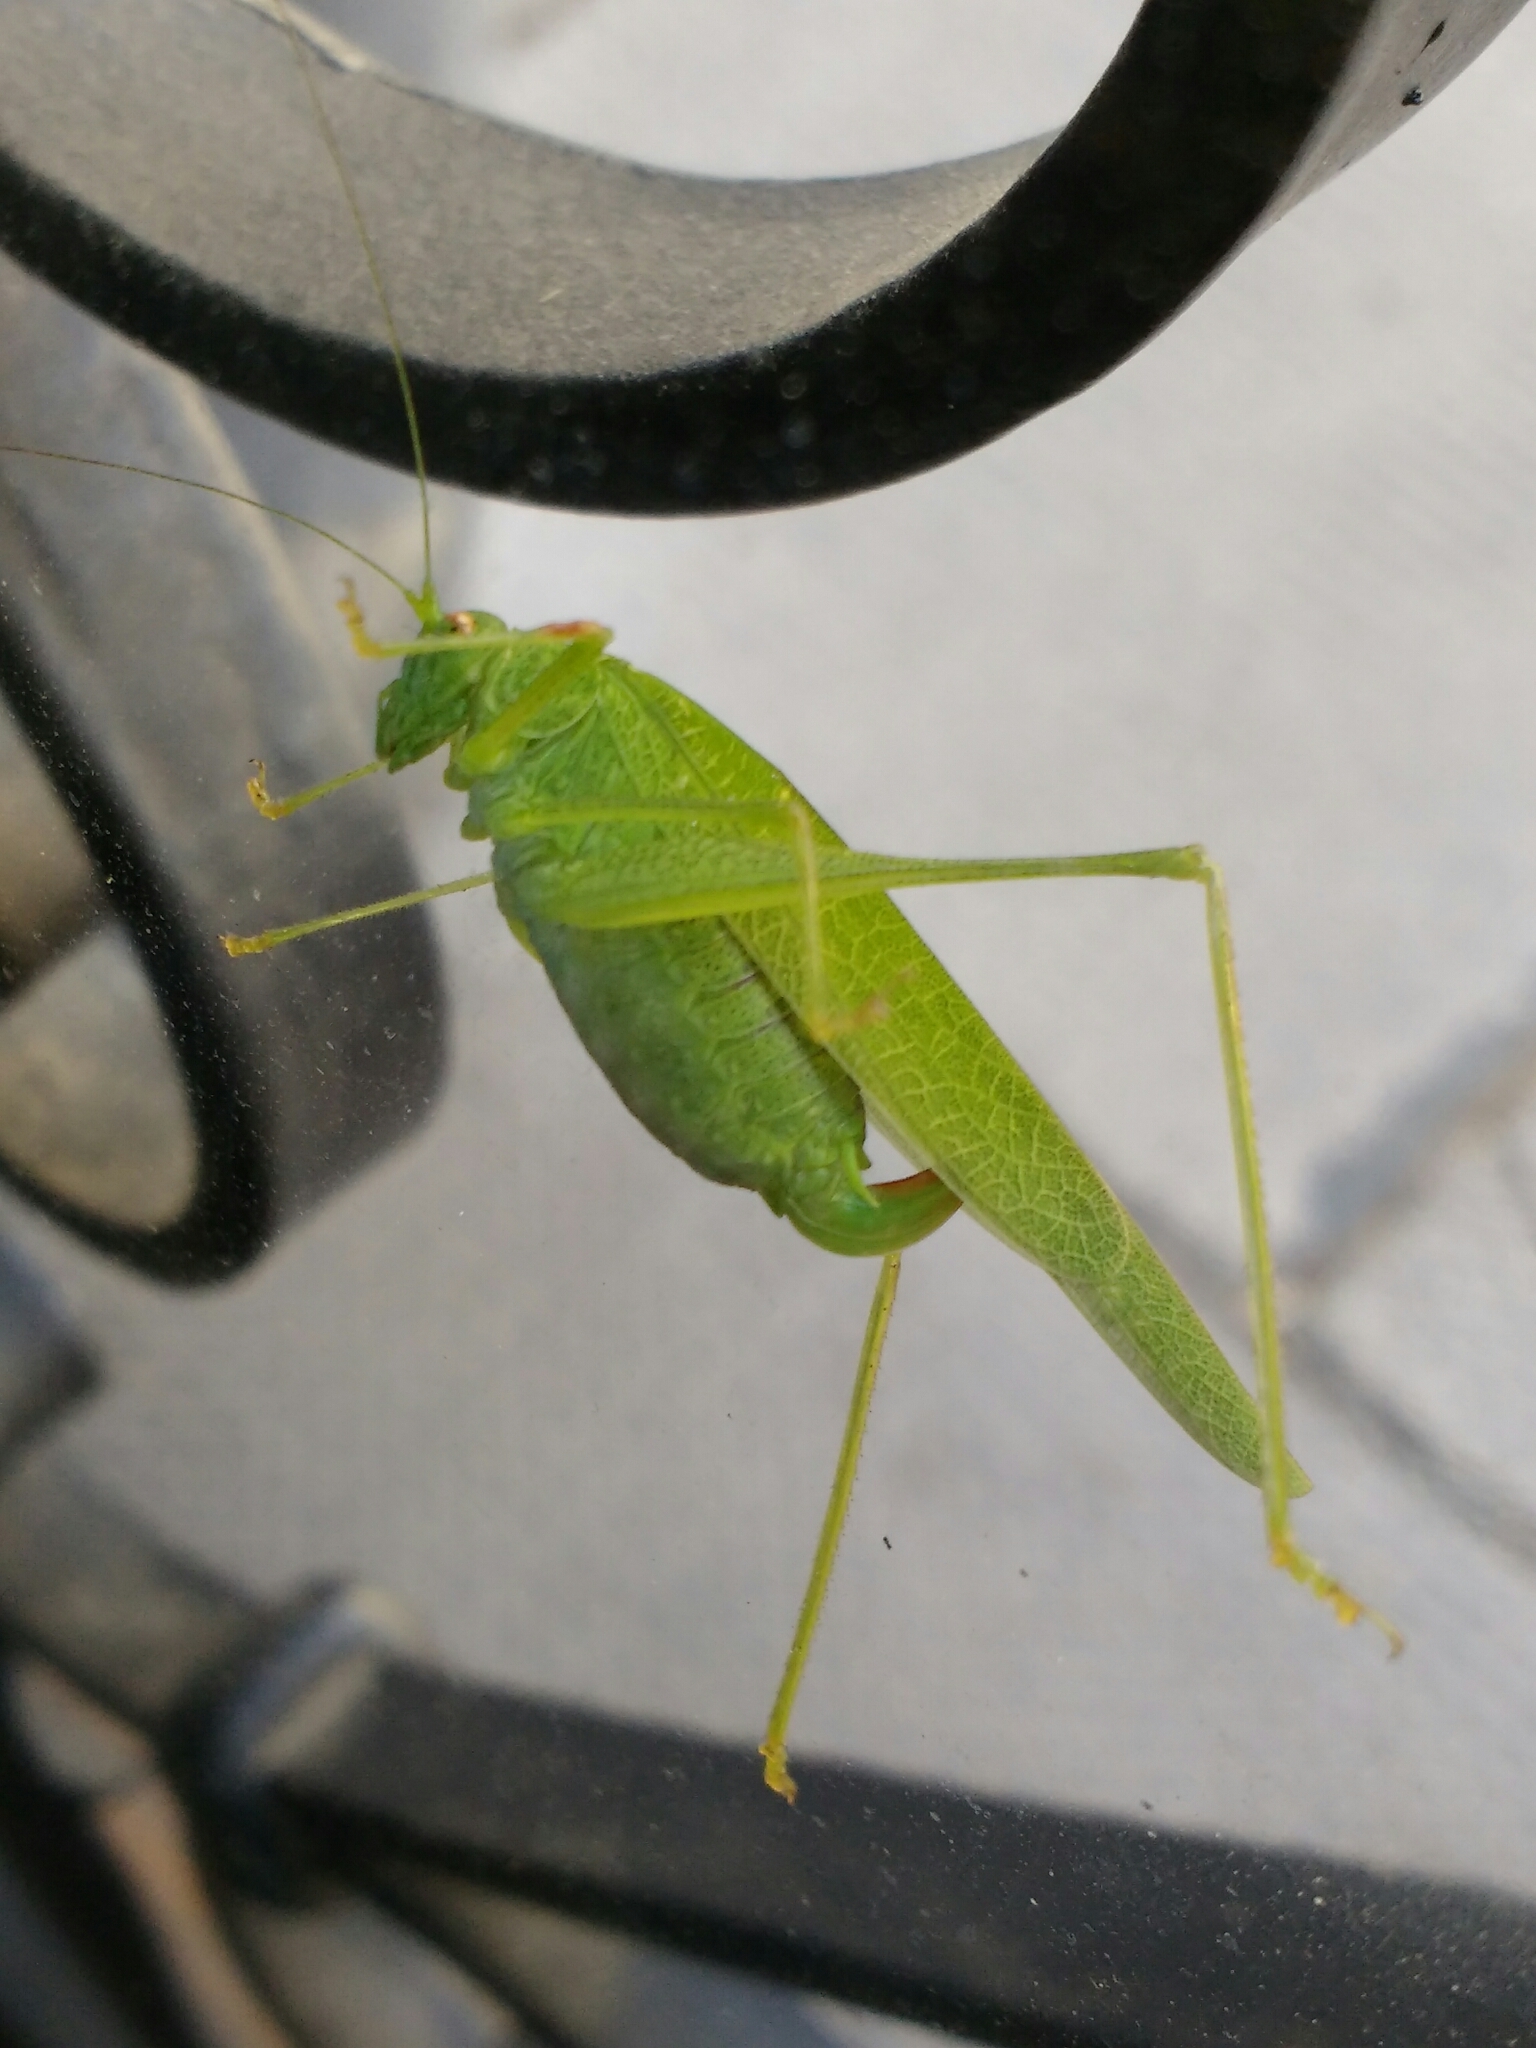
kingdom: Animalia
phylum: Arthropoda
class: Insecta
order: Orthoptera
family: Tettigoniidae
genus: Phaneroptera
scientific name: Phaneroptera nana
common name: Southern sickle bush-cricket
